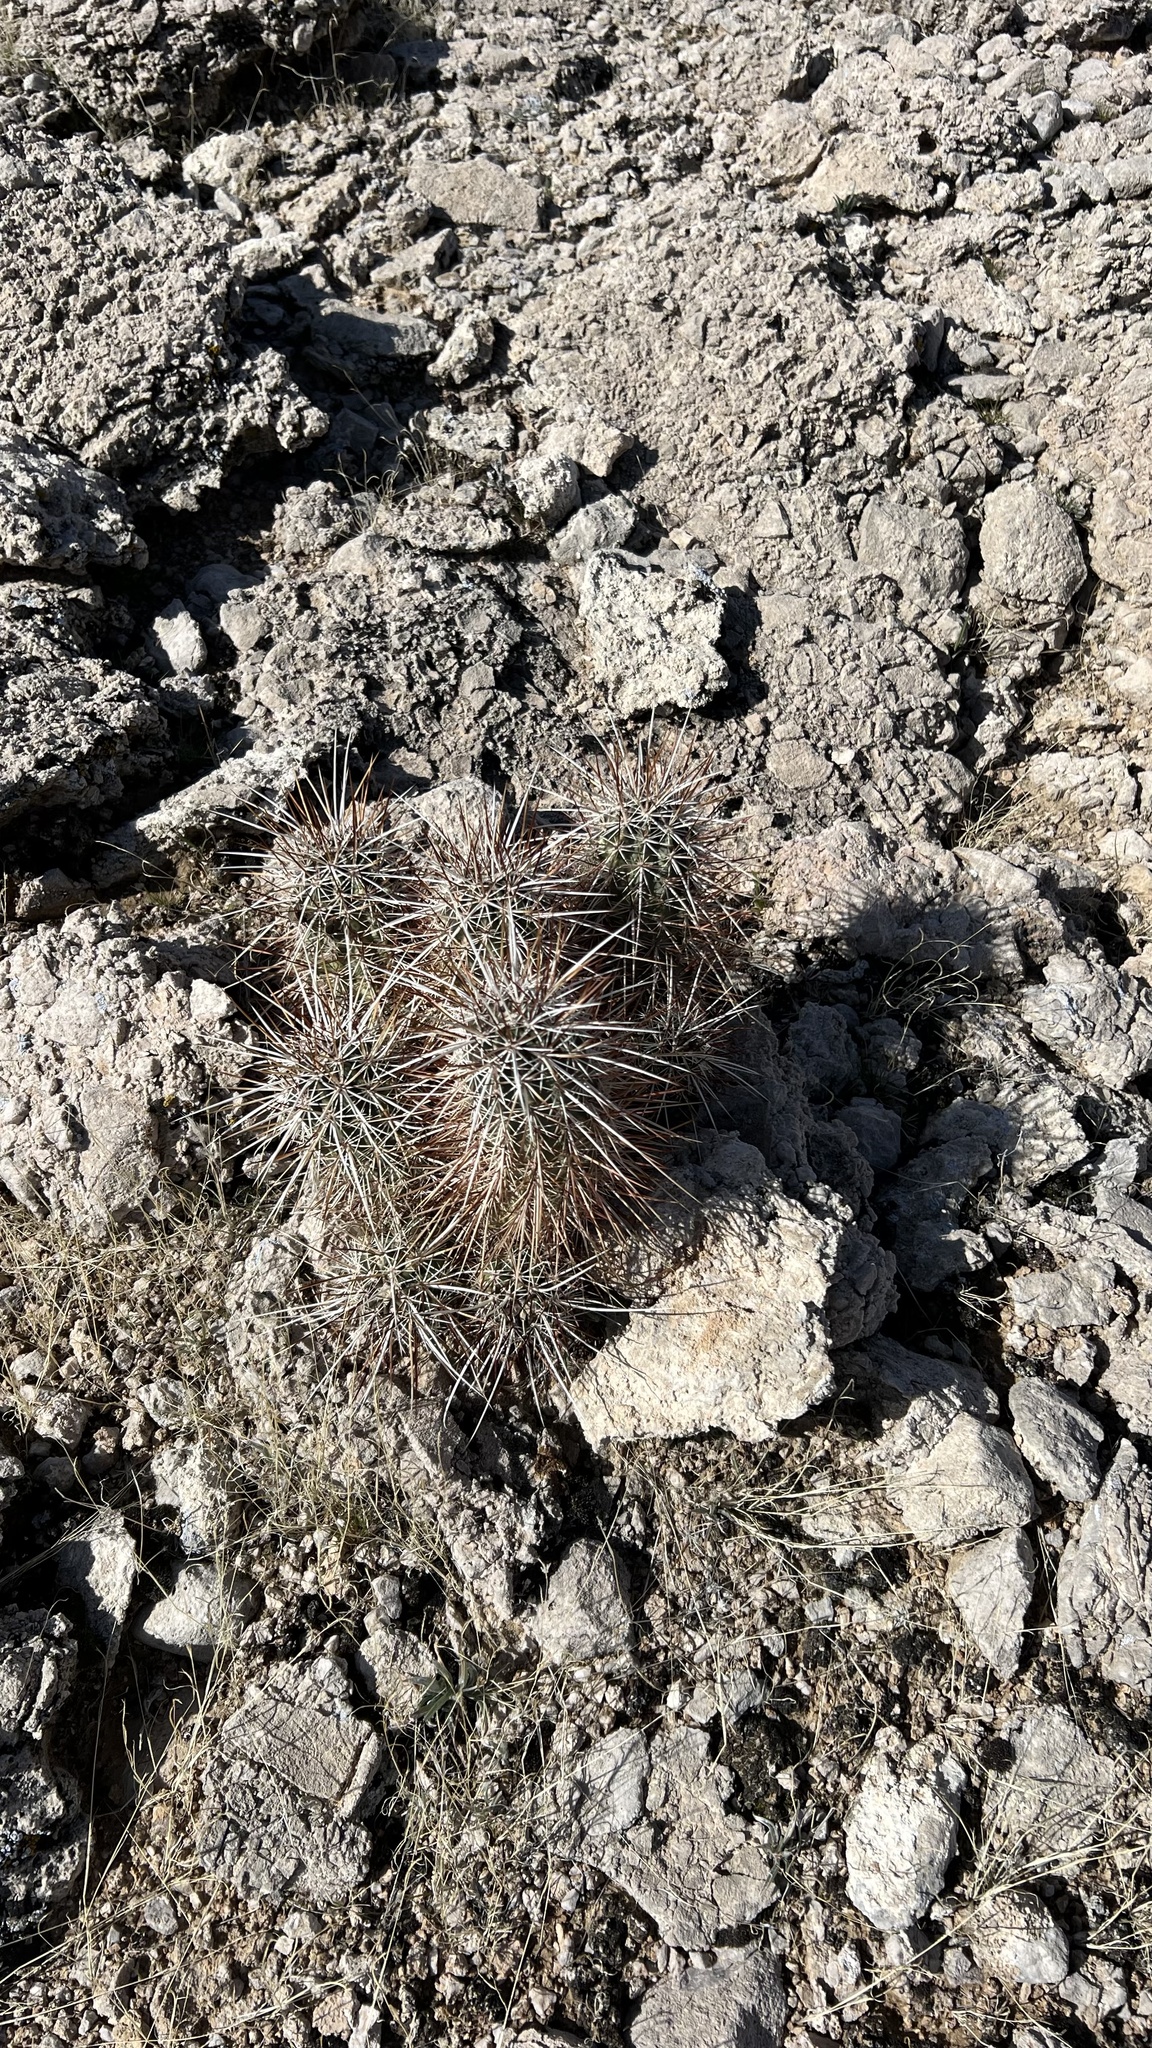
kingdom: Plantae
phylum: Tracheophyta
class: Magnoliopsida
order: Caryophyllales
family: Cactaceae
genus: Echinocereus
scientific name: Echinocereus engelmannii
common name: Engelmann's hedgehog cactus
